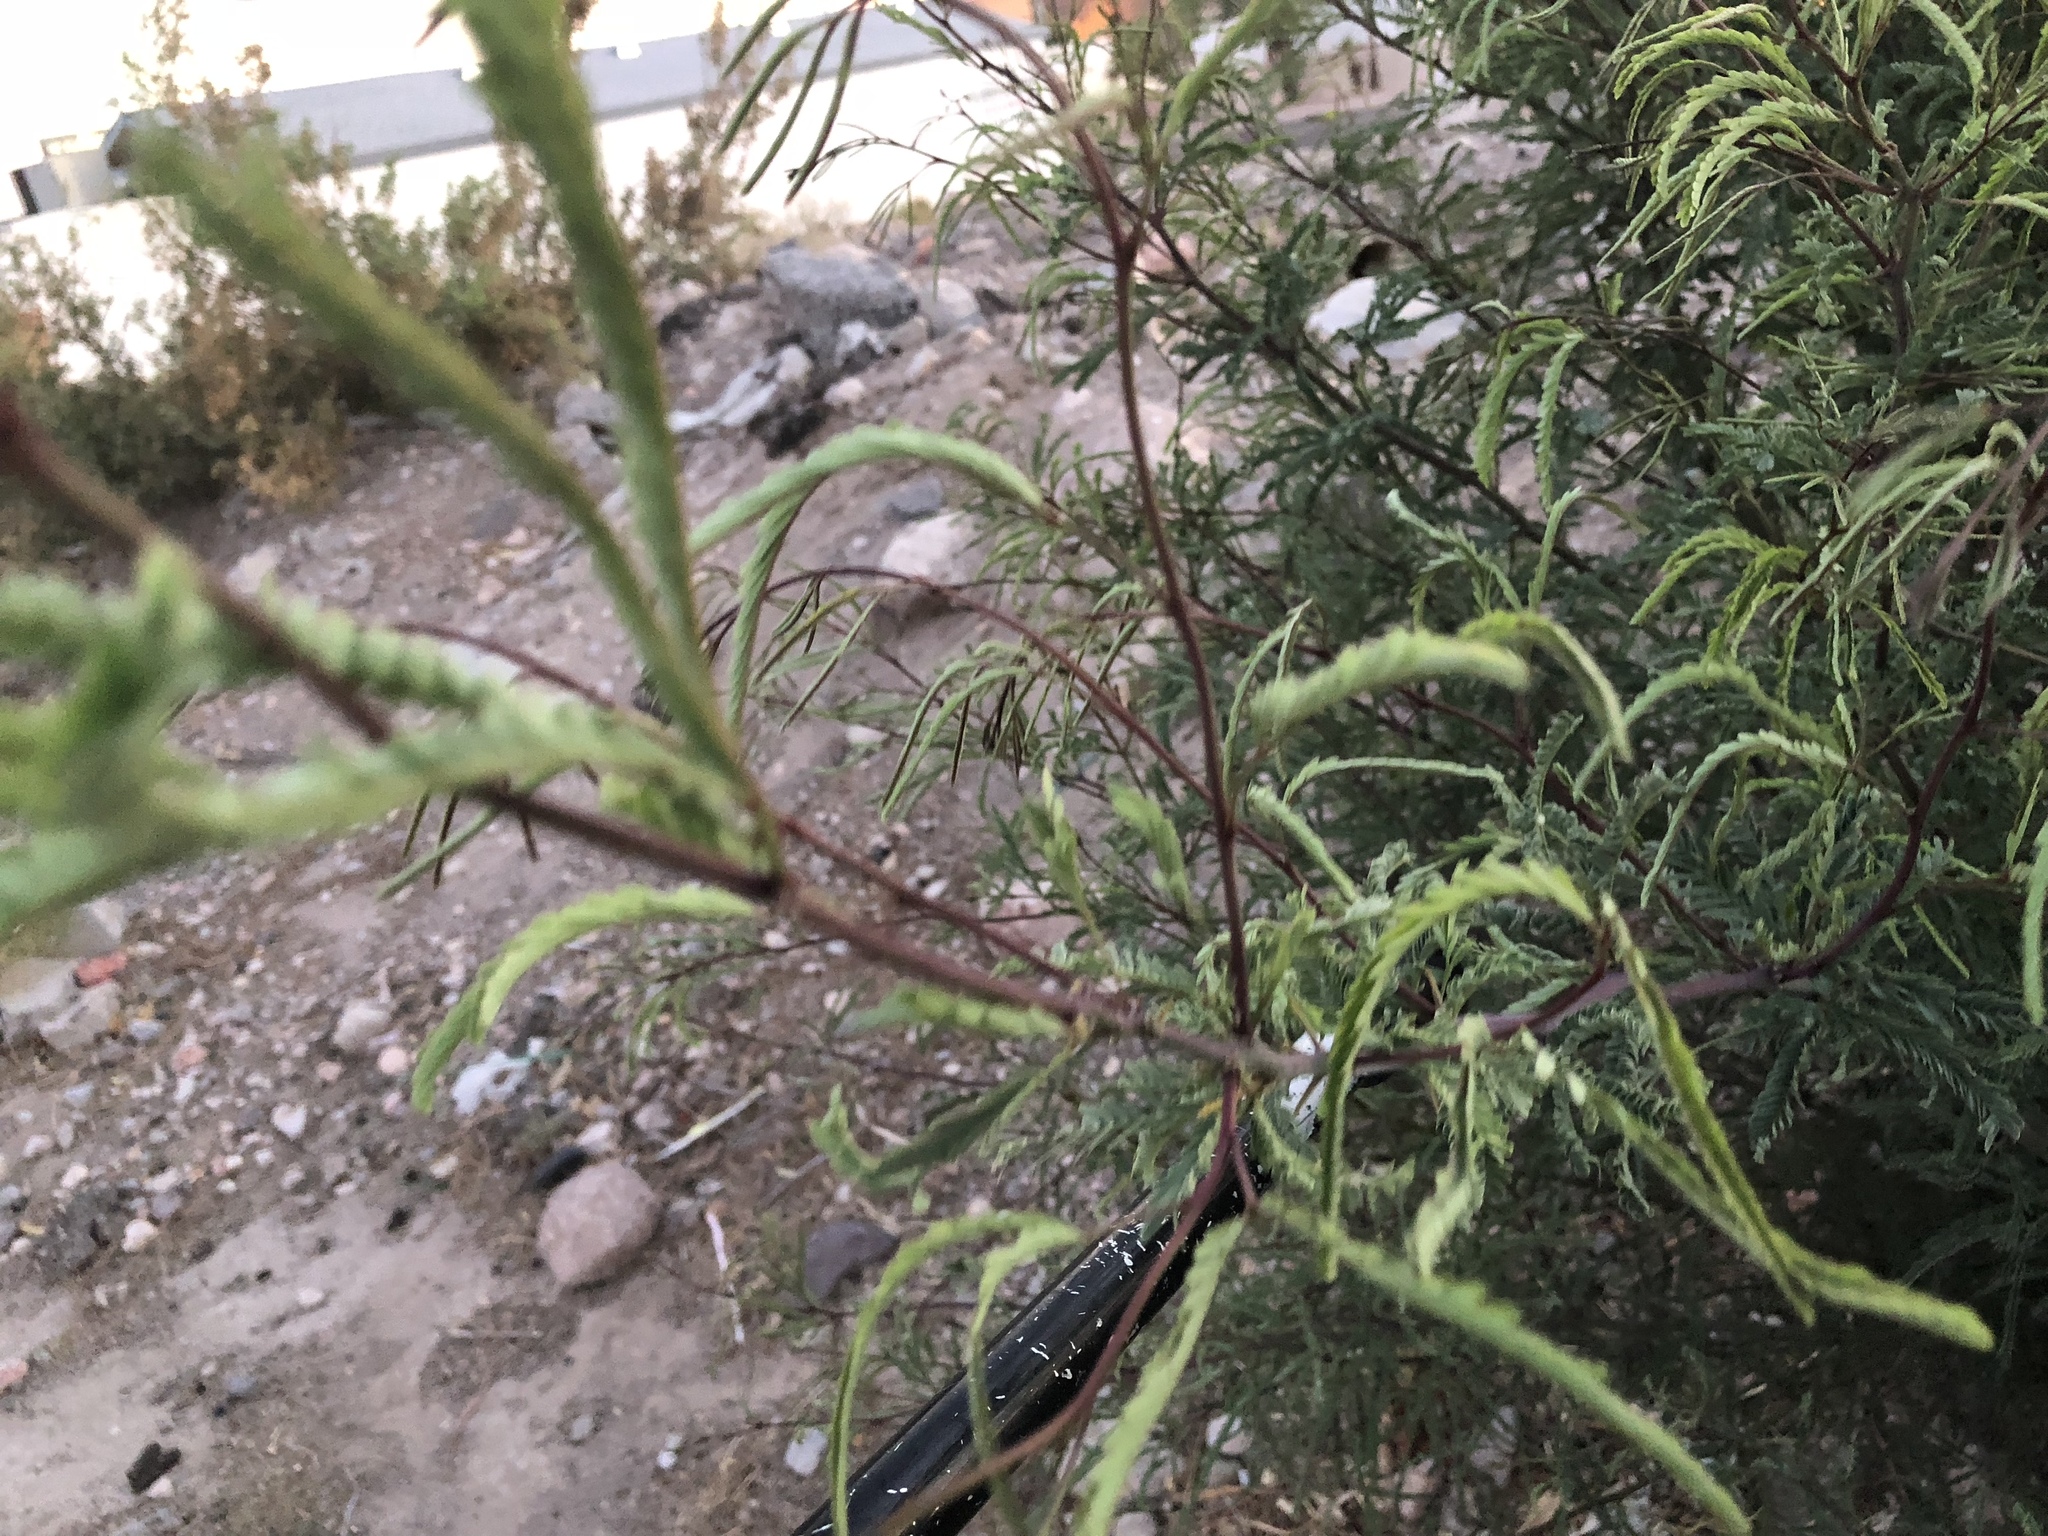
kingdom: Plantae
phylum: Tracheophyta
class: Magnoliopsida
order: Fabales
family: Fabaceae
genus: Prosopis
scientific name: Prosopis glandulosa
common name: Honey mesquite
